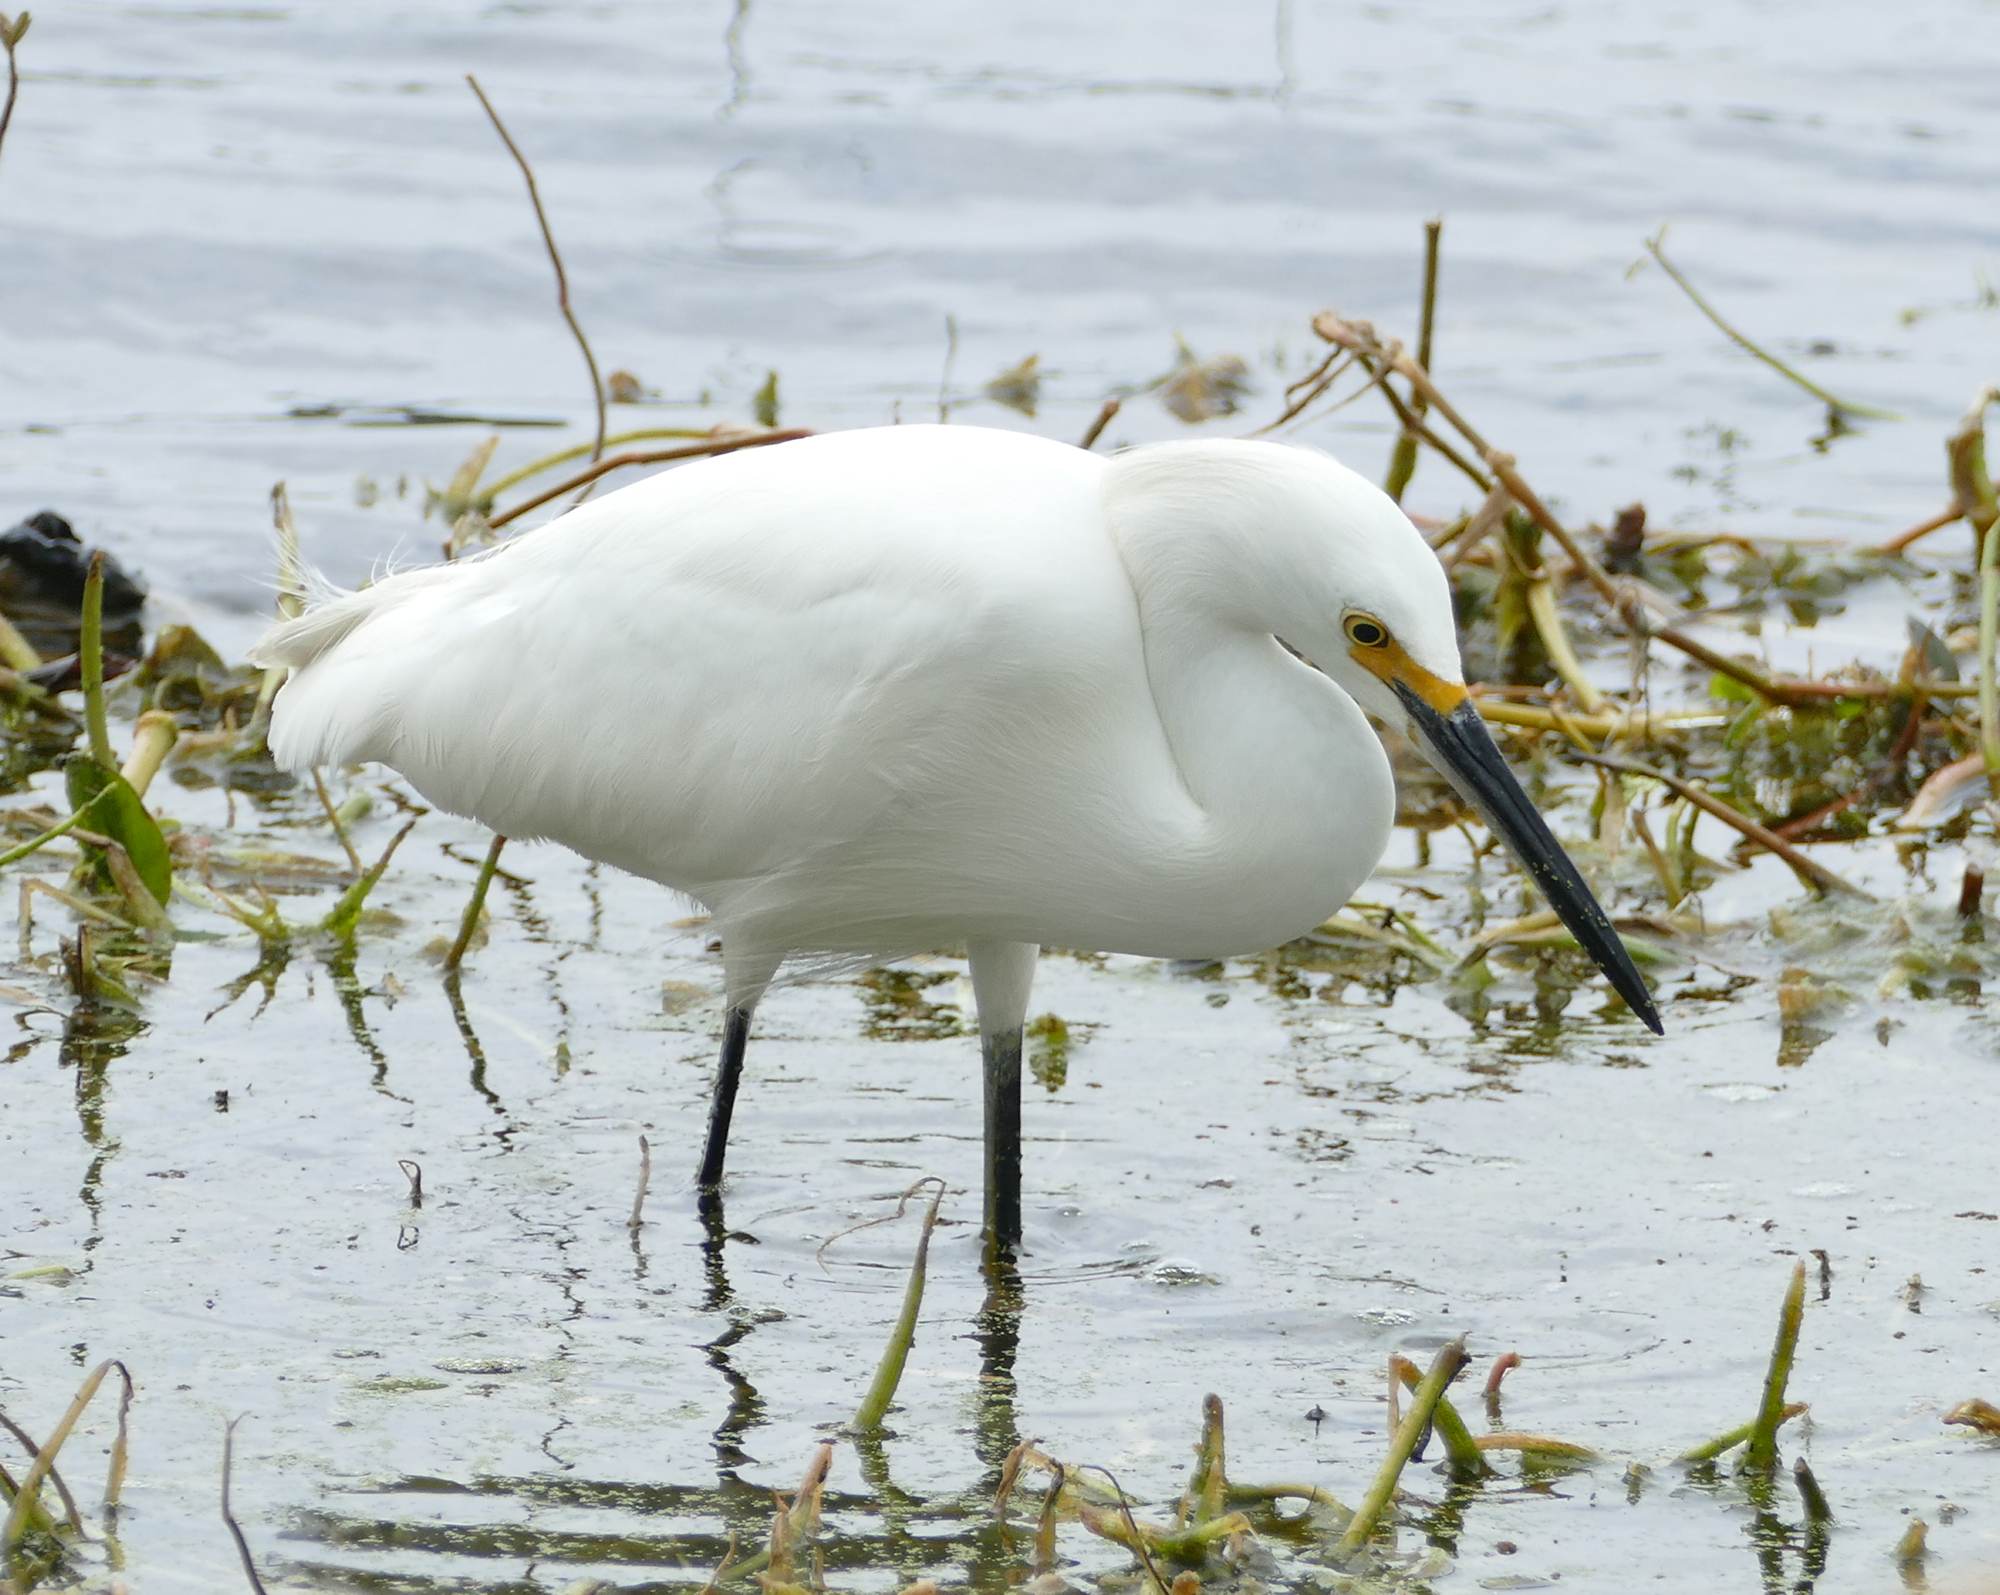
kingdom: Animalia
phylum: Chordata
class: Aves
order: Pelecaniformes
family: Ardeidae
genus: Egretta
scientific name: Egretta thula
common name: Snowy egret
